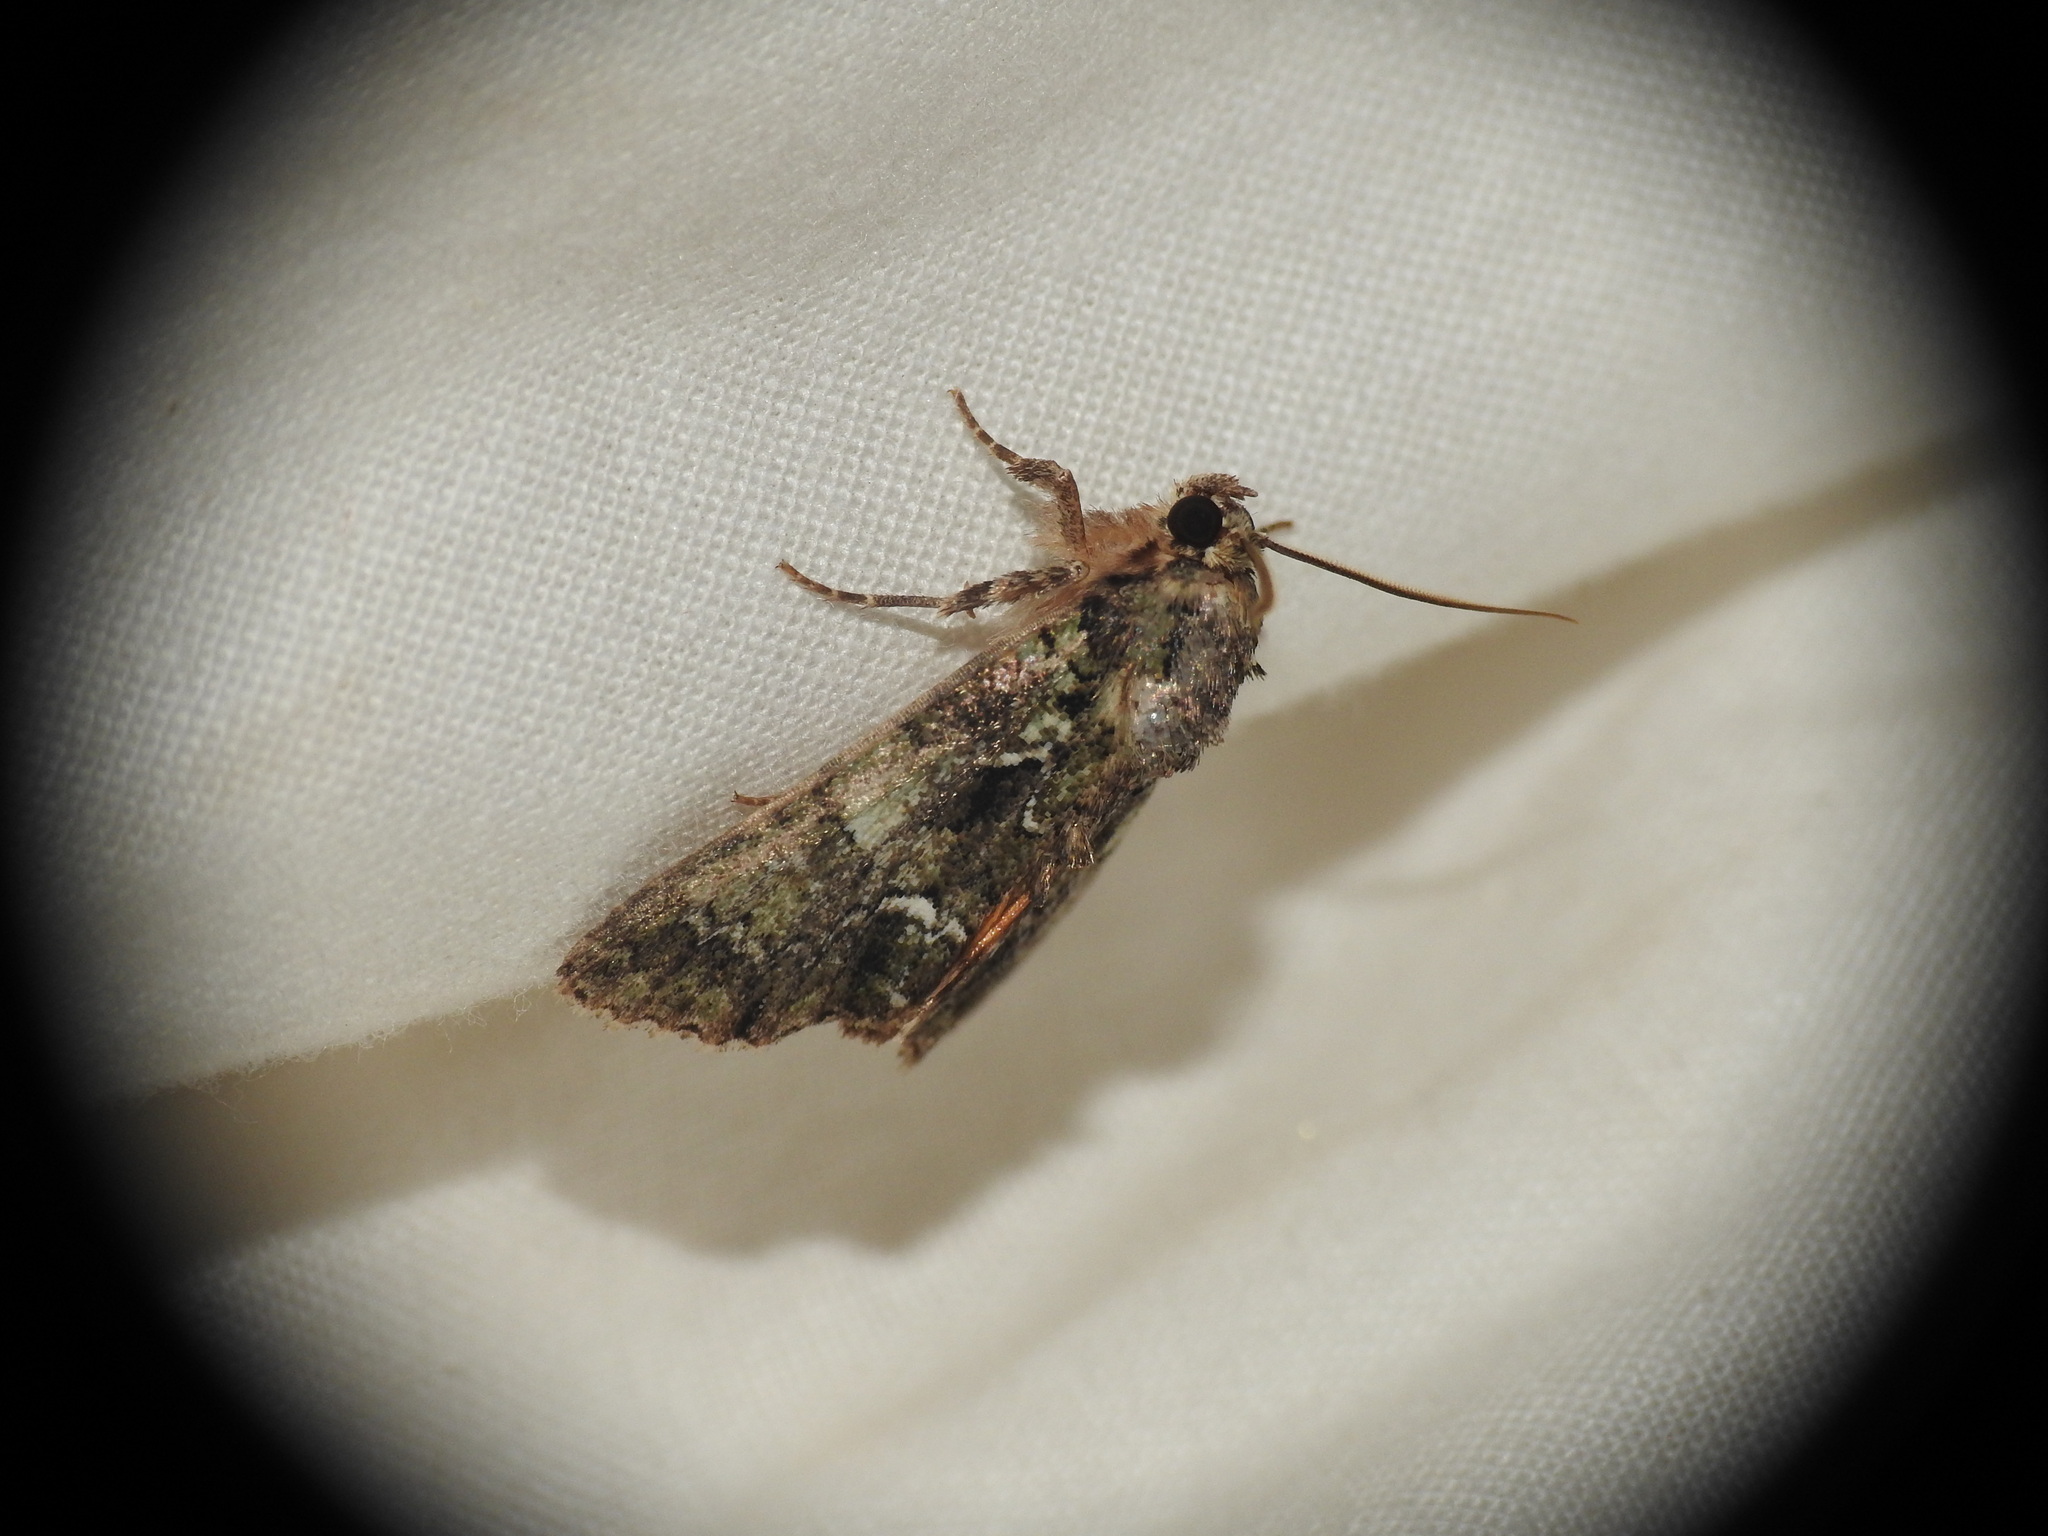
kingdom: Animalia
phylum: Arthropoda
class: Insecta
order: Lepidoptera
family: Noctuidae
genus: Polyphaenis
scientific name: Polyphaenis sericata
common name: Guernsey underwing
